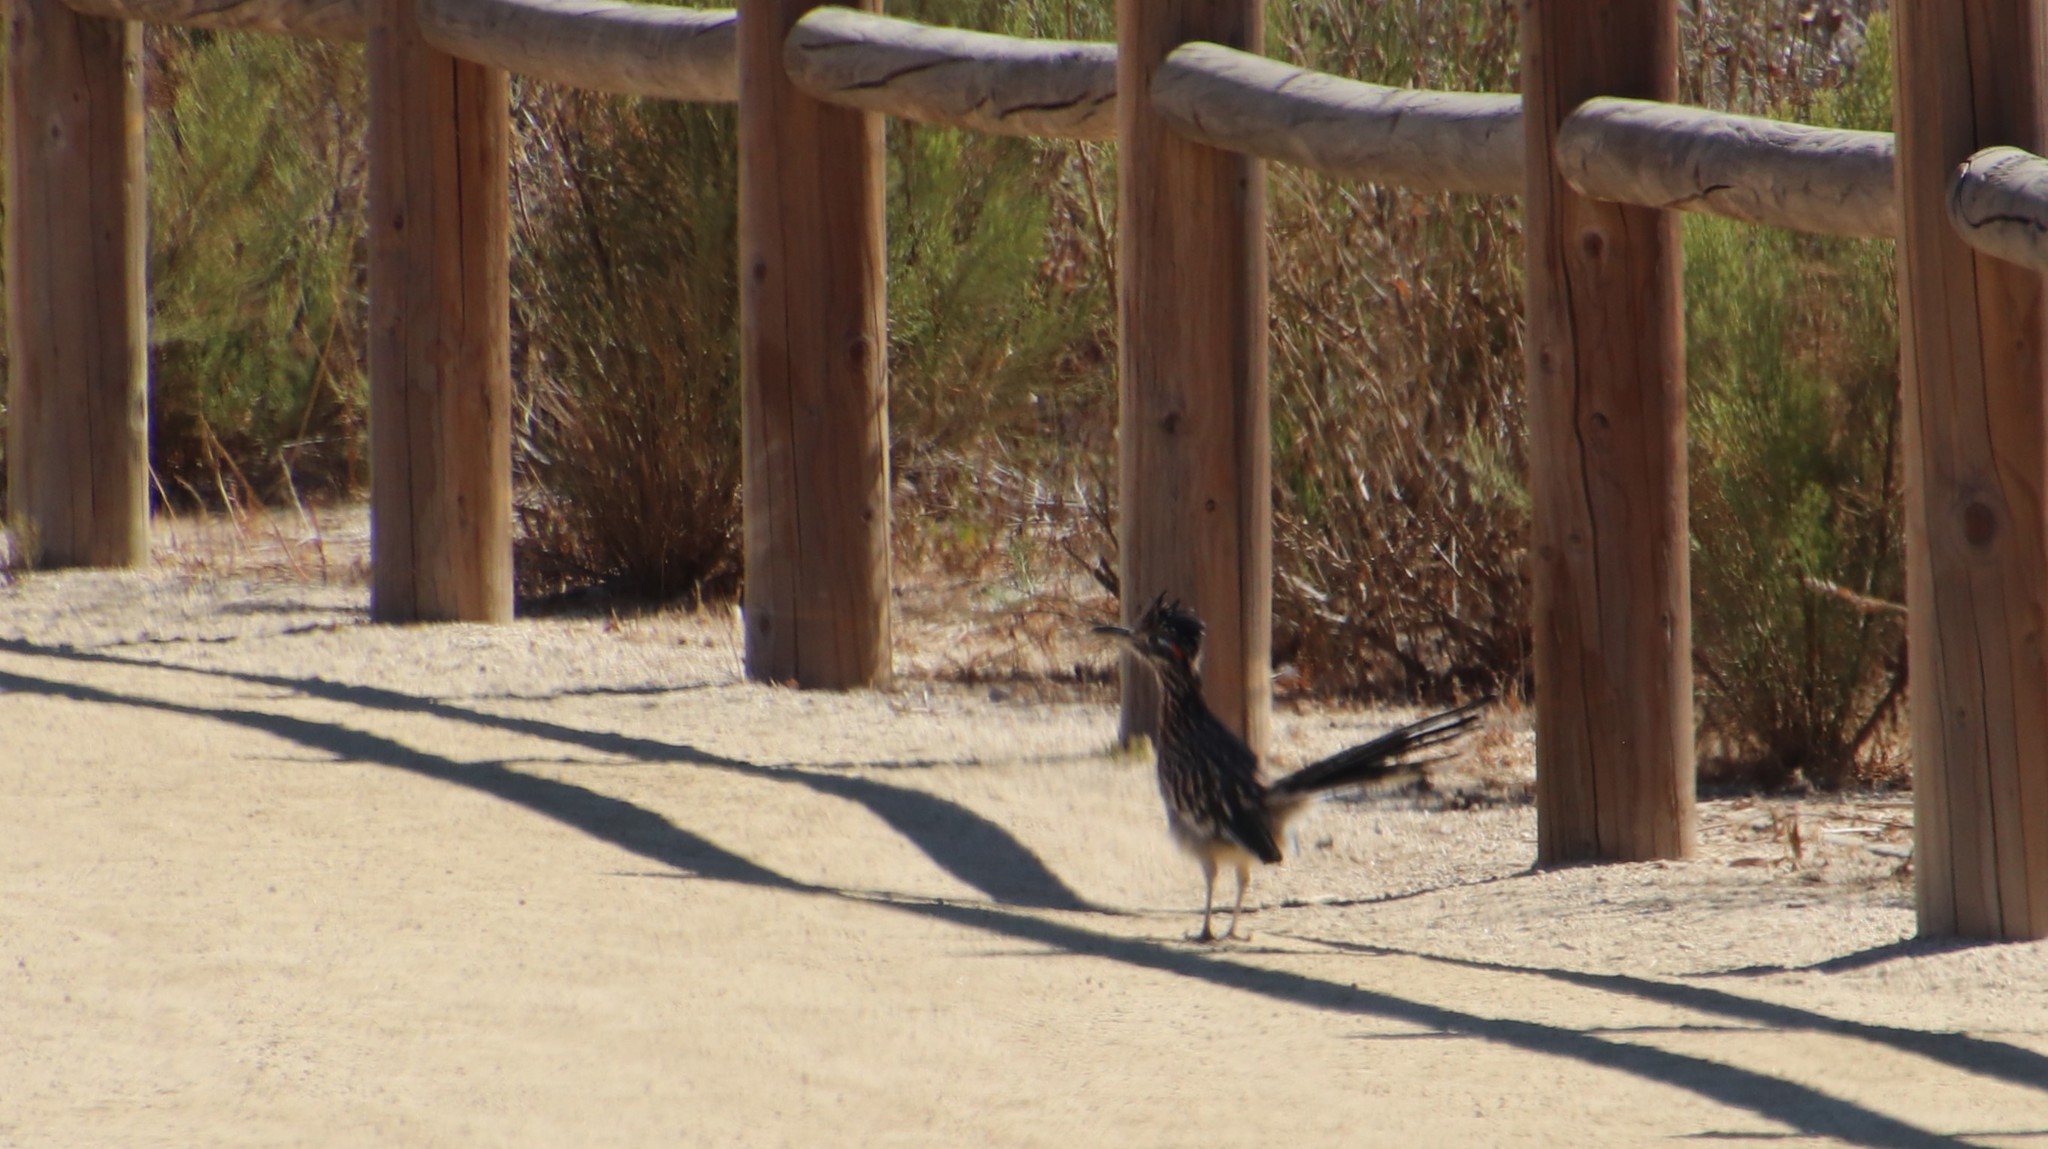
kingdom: Animalia
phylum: Chordata
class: Aves
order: Cuculiformes
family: Cuculidae
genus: Geococcyx
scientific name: Geococcyx californianus
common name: Greater roadrunner
